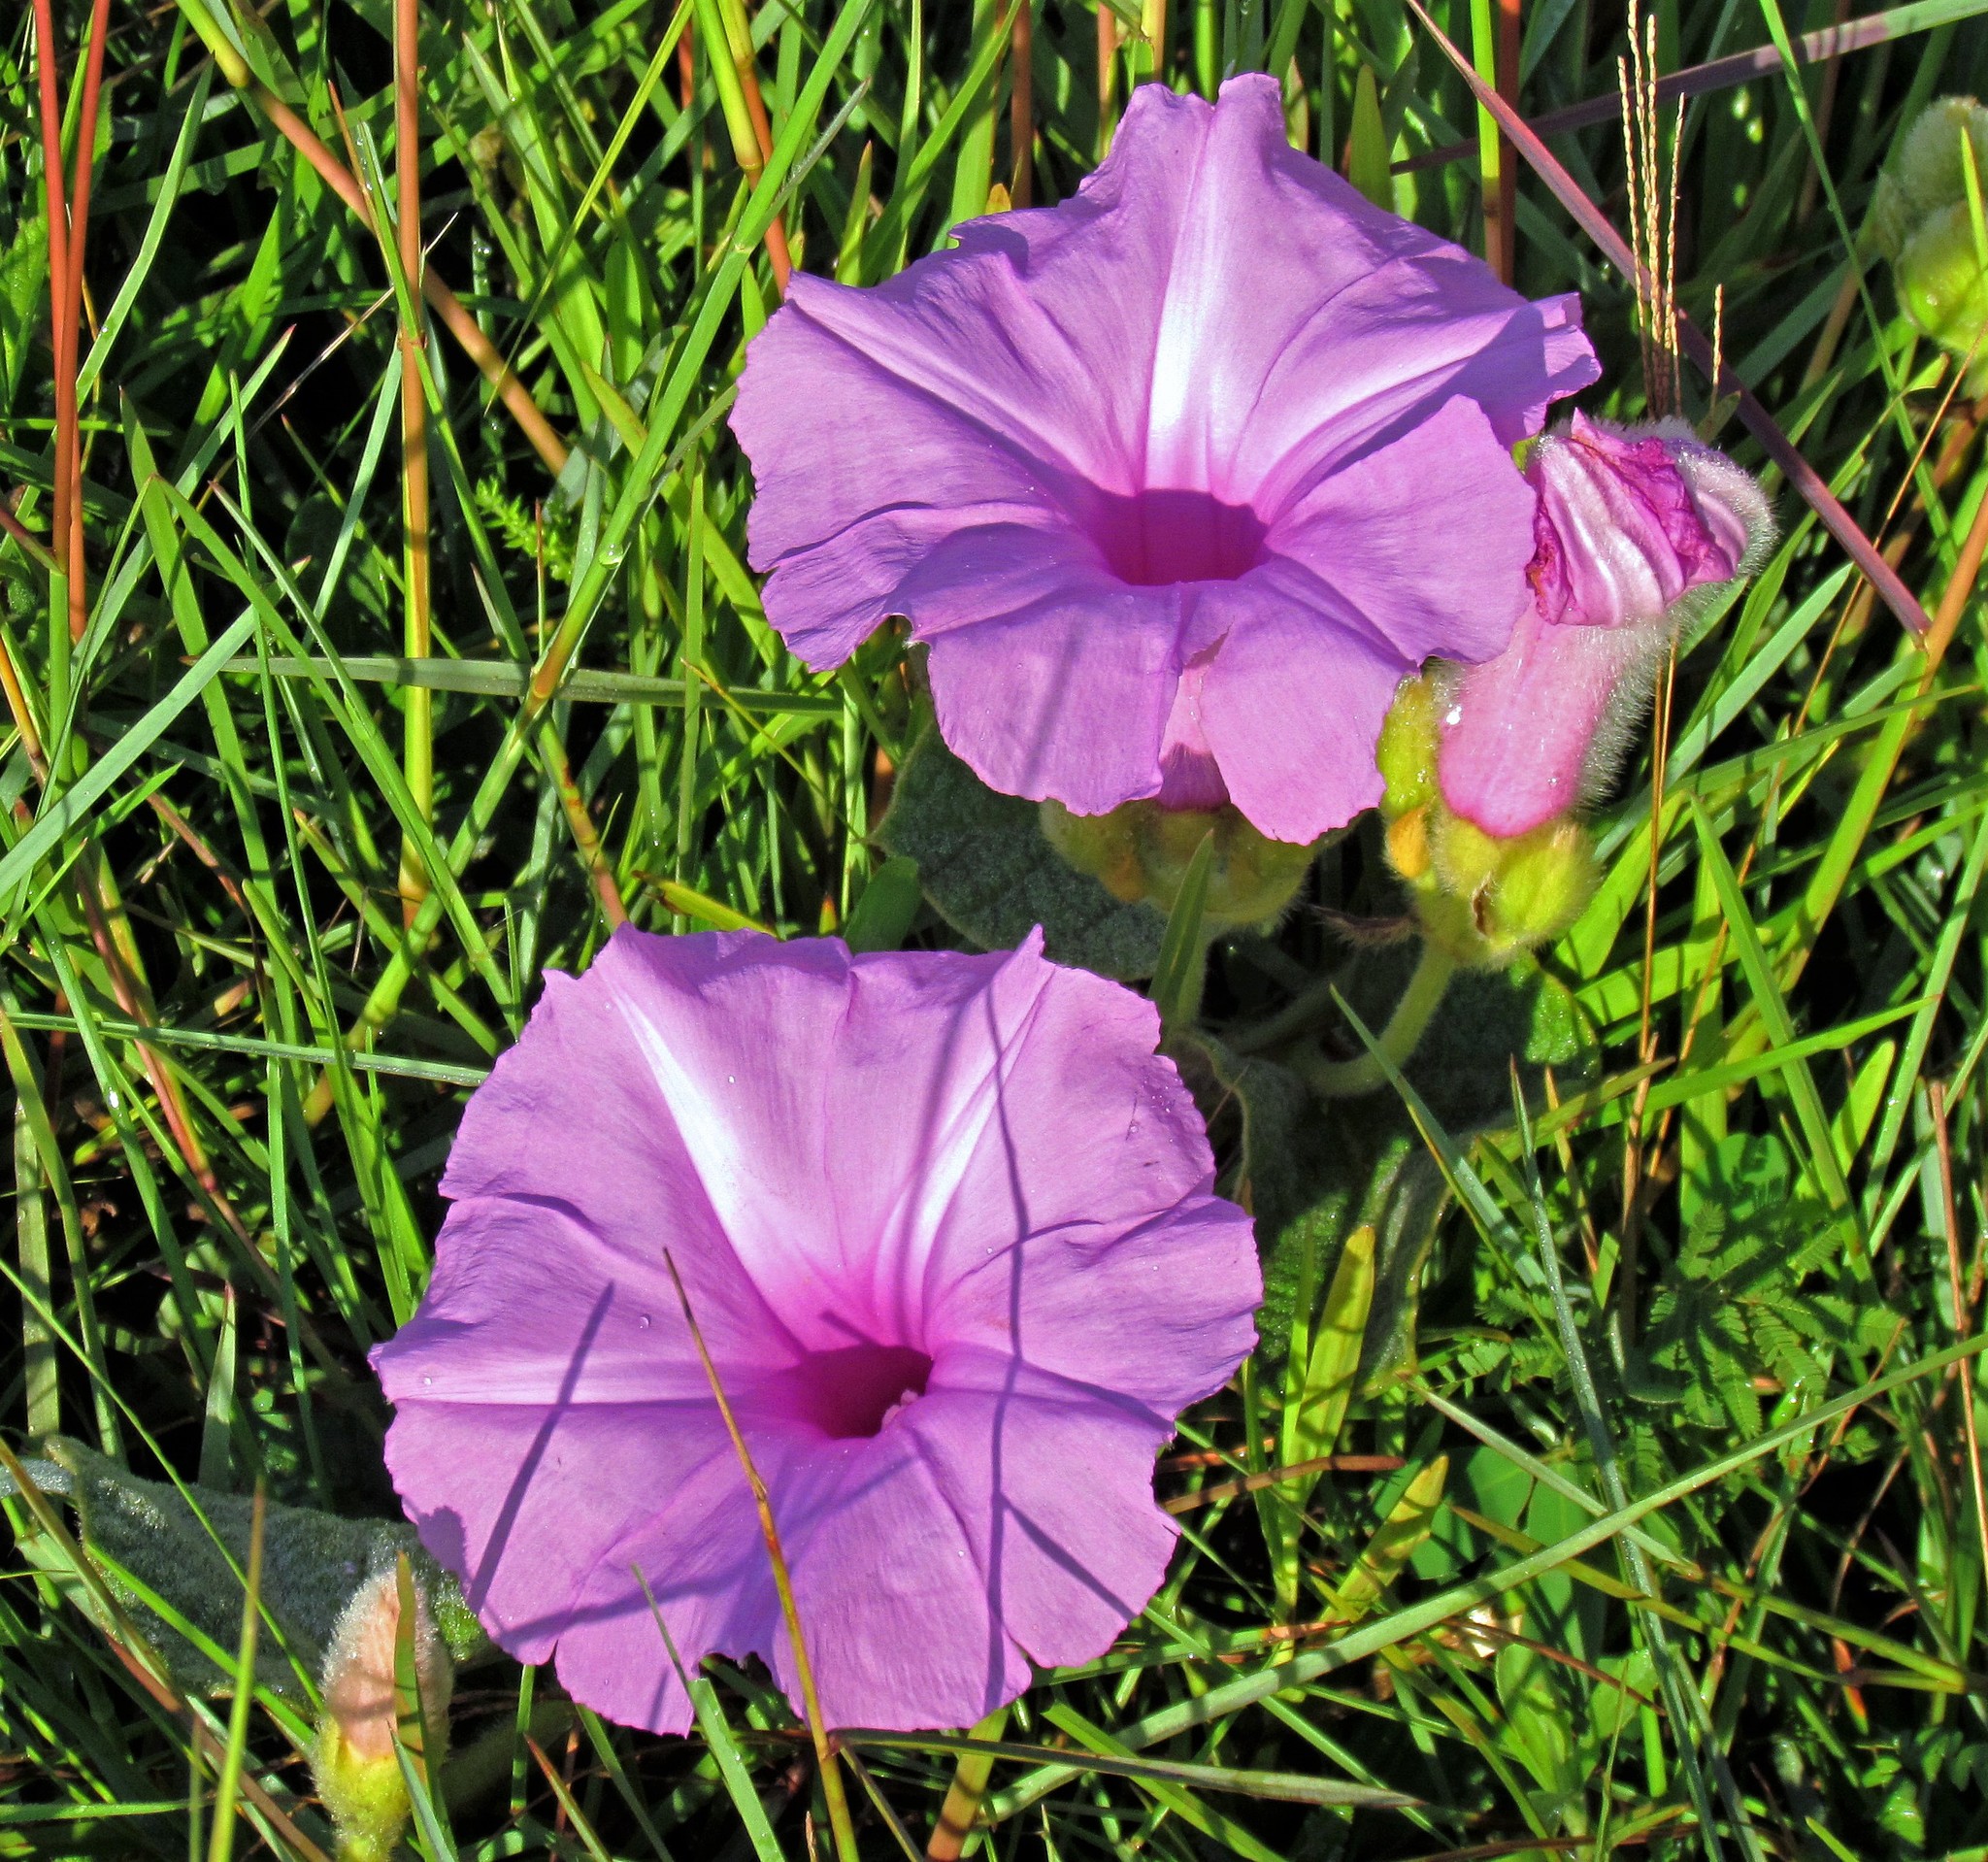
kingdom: Plantae
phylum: Tracheophyta
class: Magnoliopsida
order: Solanales
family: Convolvulaceae
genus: Ipomoea
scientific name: Ipomoea descolei
